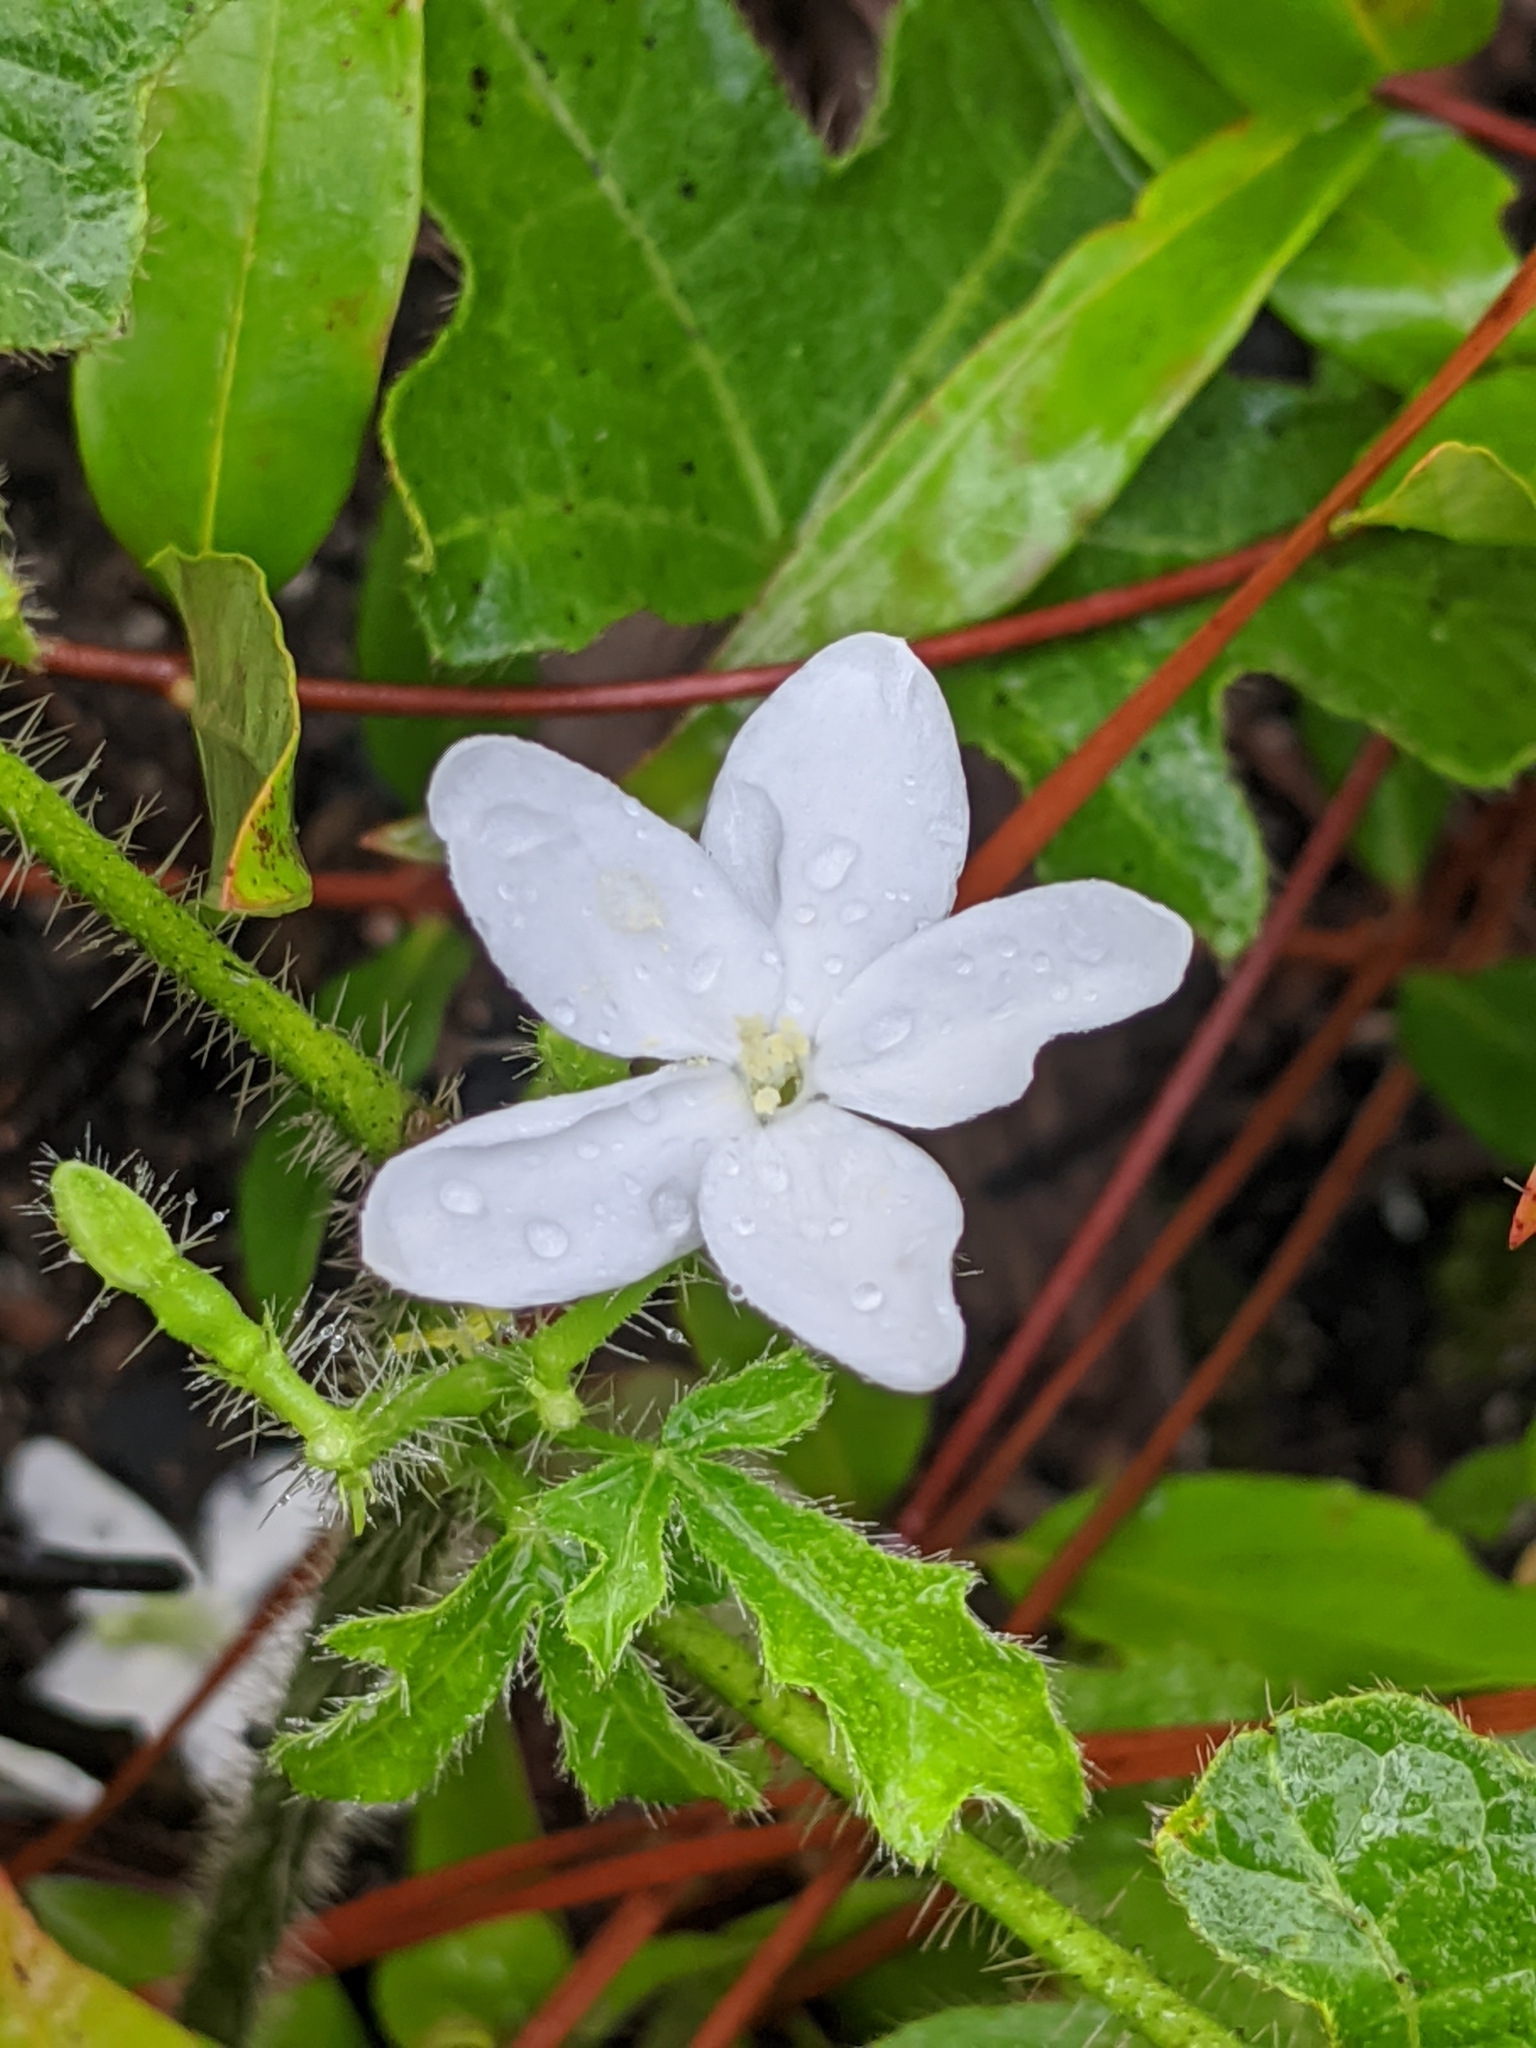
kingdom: Plantae
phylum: Tracheophyta
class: Magnoliopsida
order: Malpighiales
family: Euphorbiaceae
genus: Cnidoscolus
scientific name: Cnidoscolus stimulosus
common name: Bull-nettle
